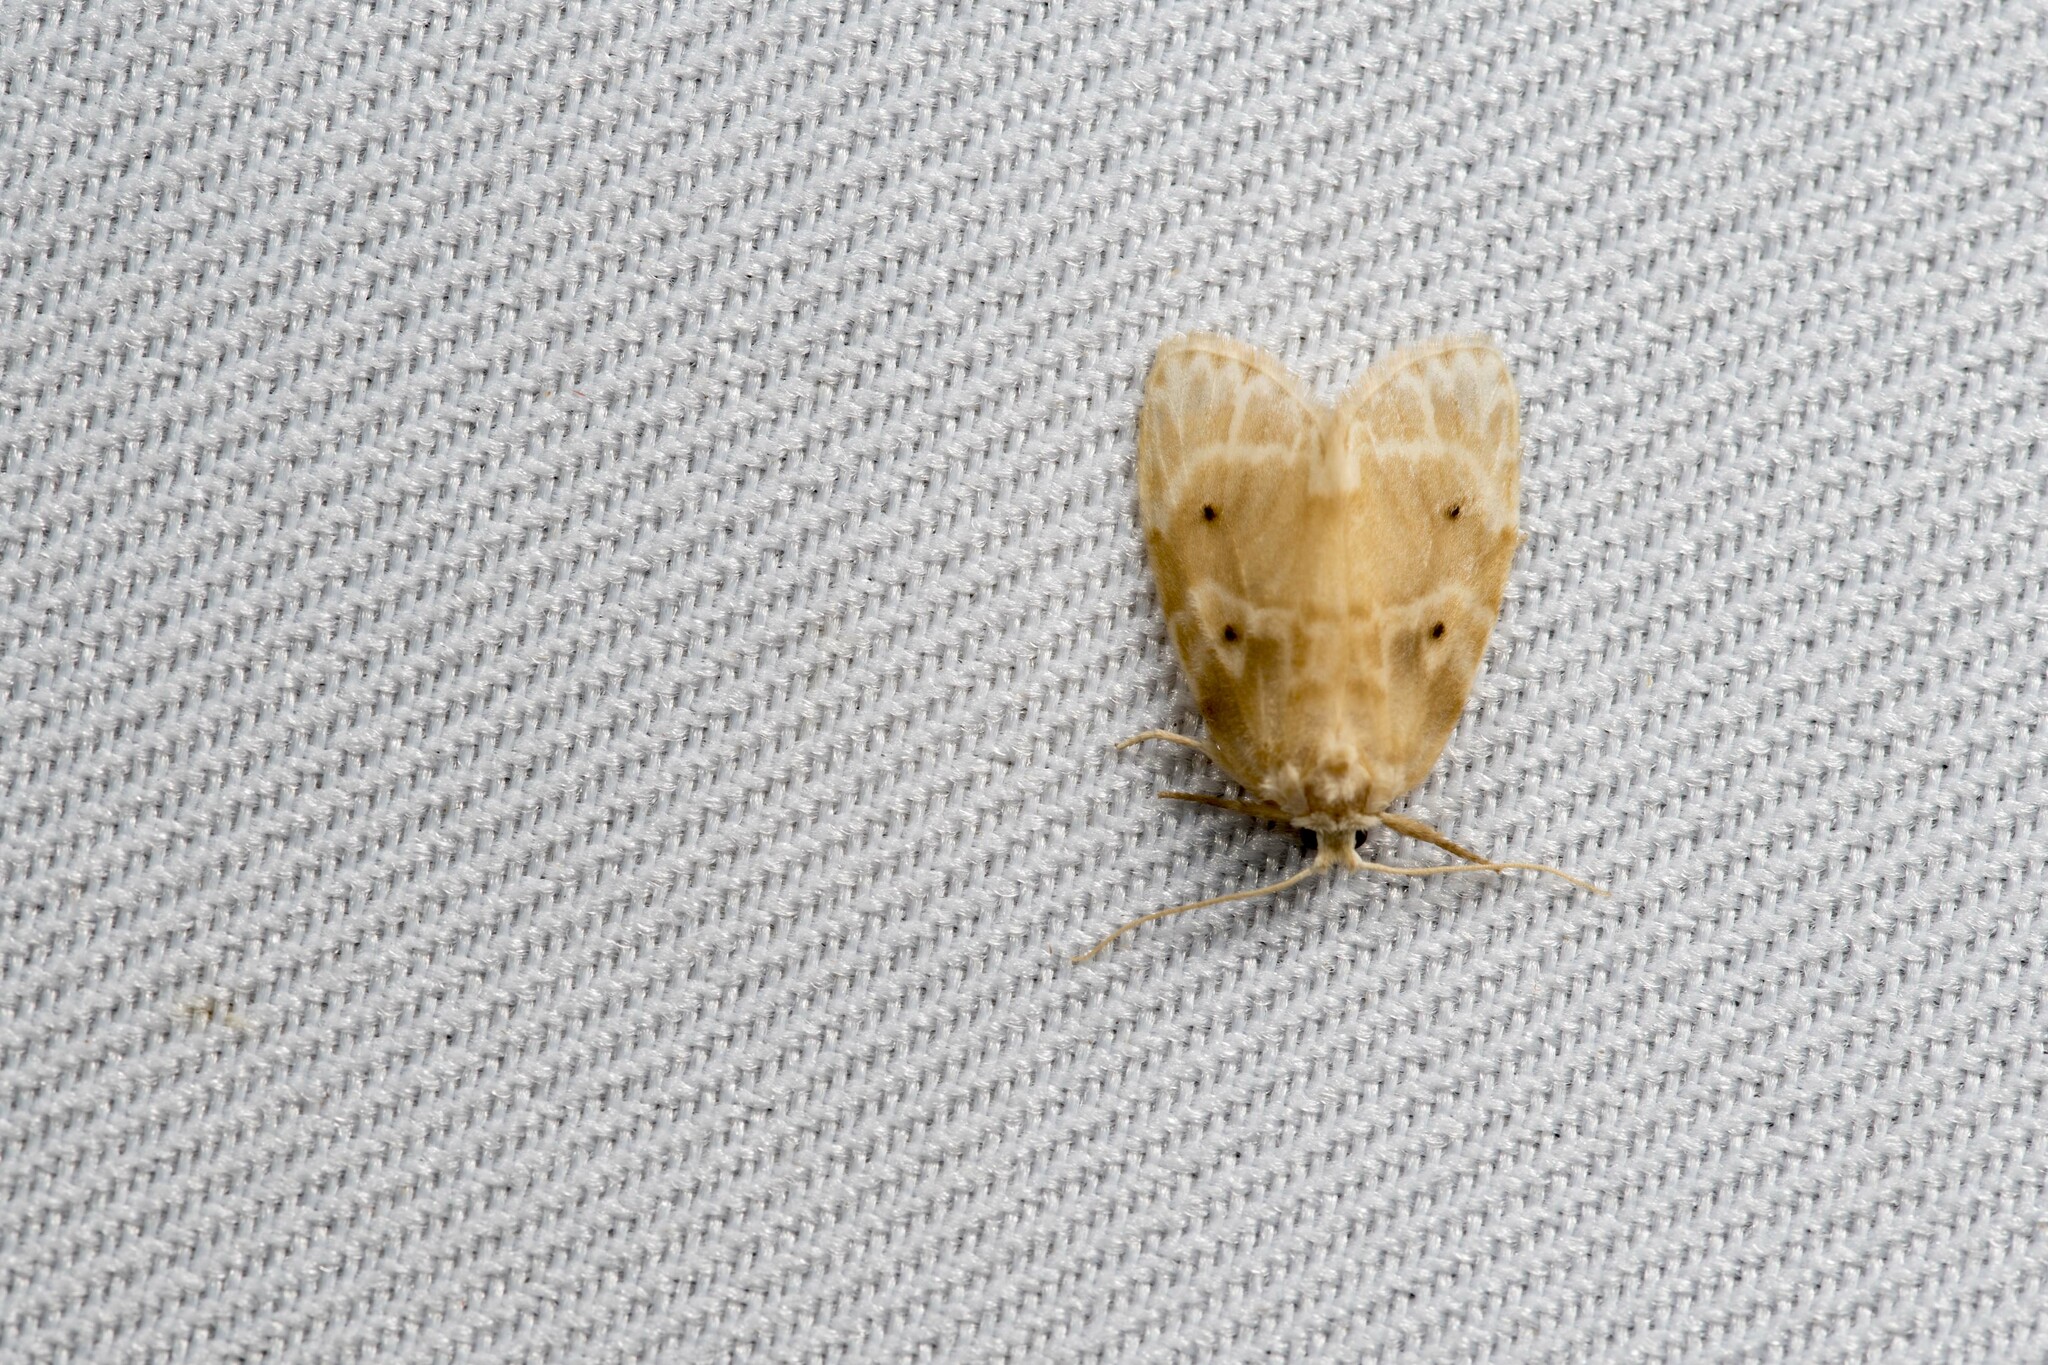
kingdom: Animalia
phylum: Arthropoda
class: Insecta
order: Lepidoptera
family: Erebidae
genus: Schistophleps
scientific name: Schistophleps bipuncta
